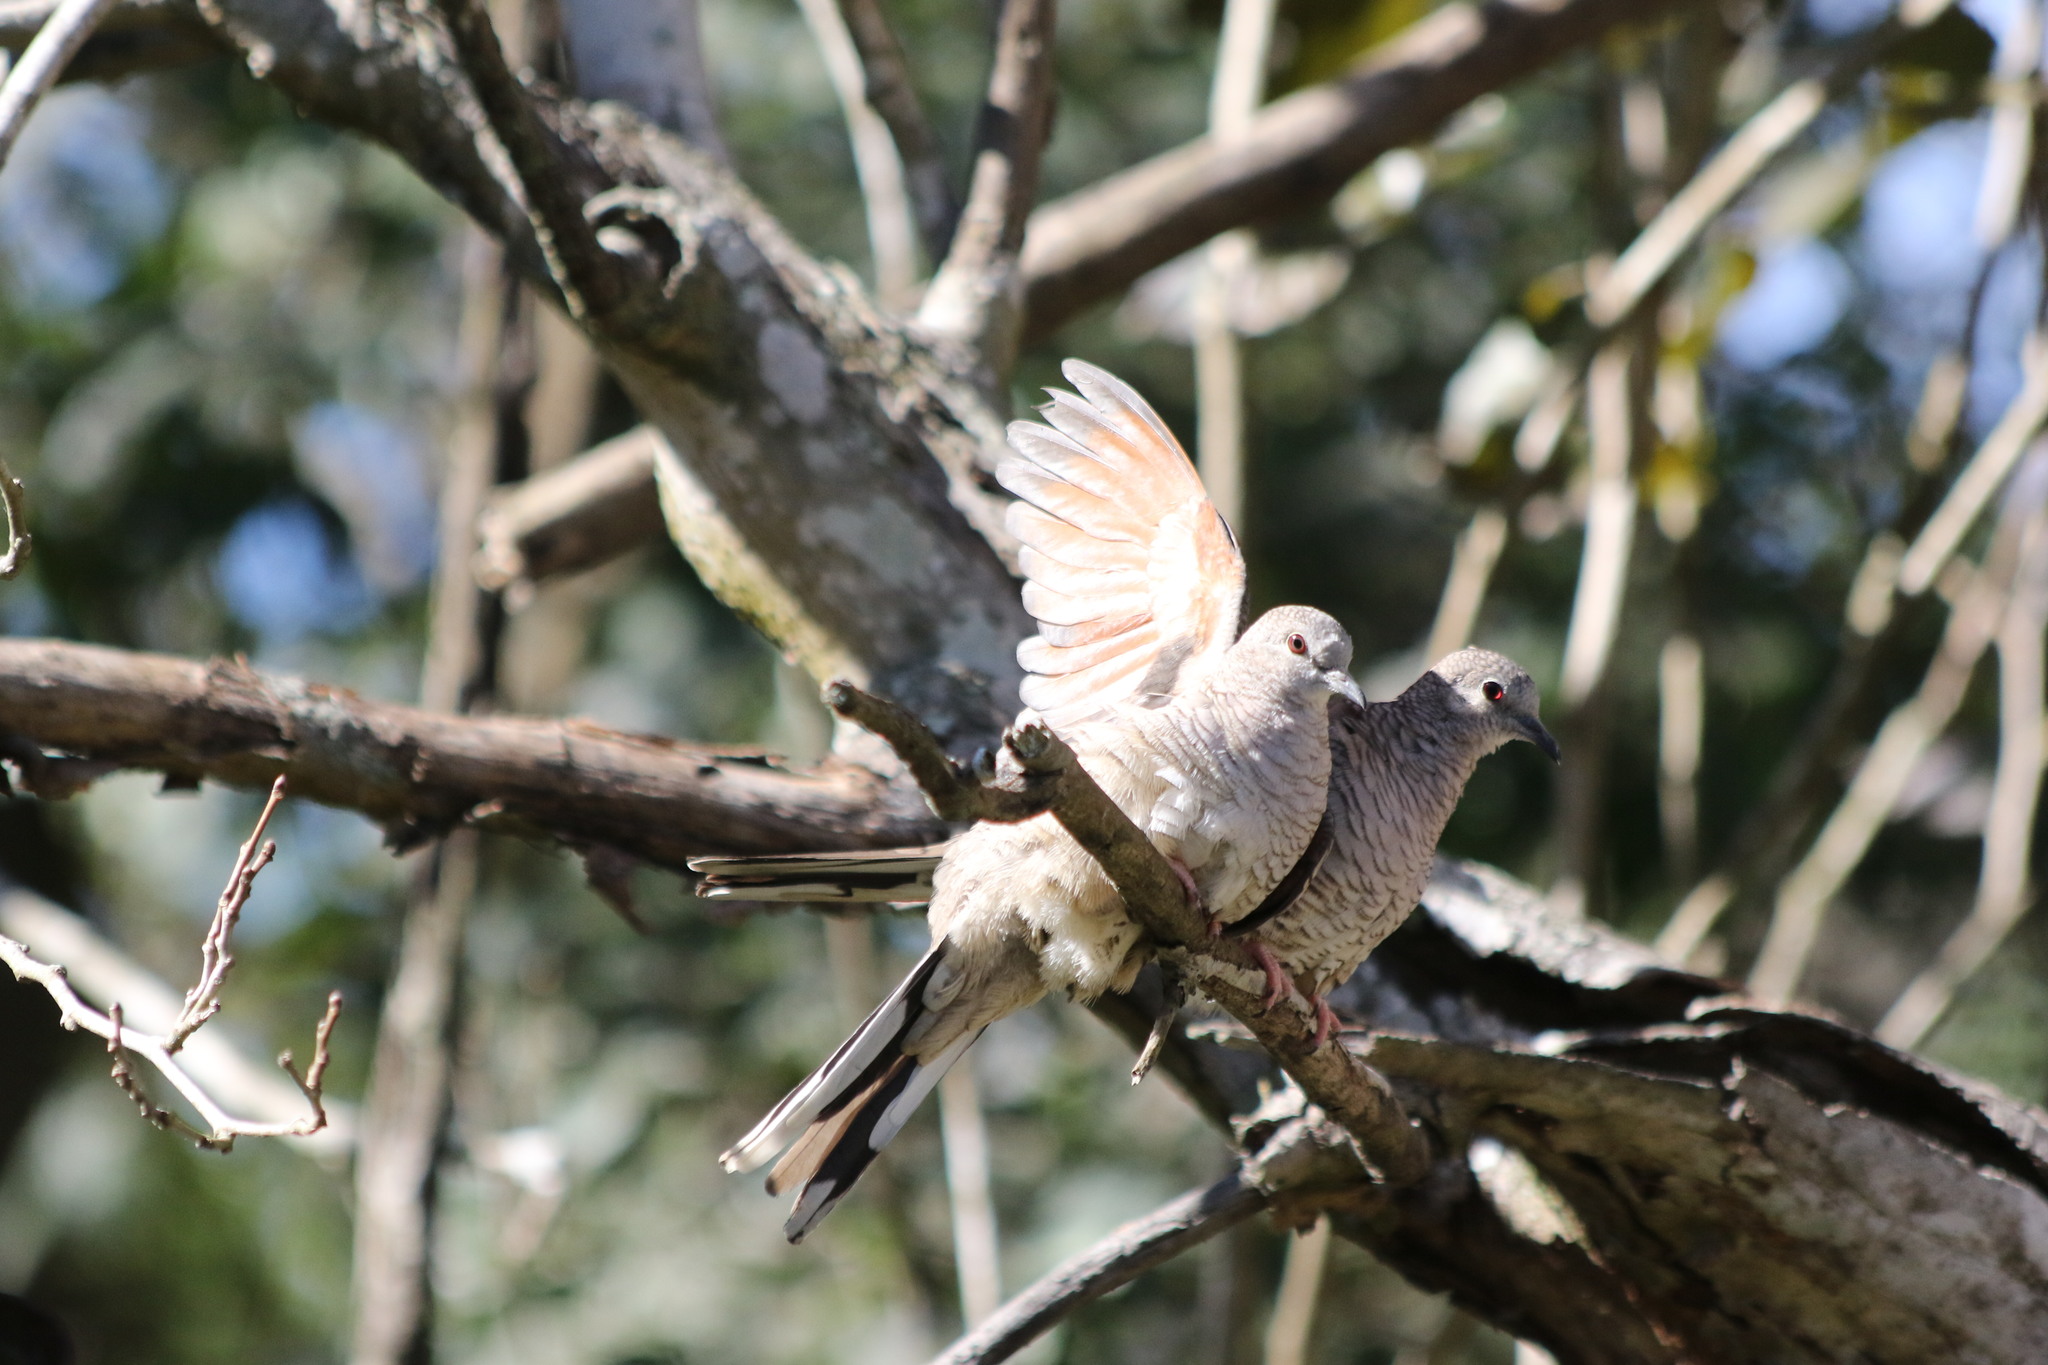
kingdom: Animalia
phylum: Chordata
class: Aves
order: Columbiformes
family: Columbidae
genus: Columbina
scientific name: Columbina inca
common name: Inca dove
